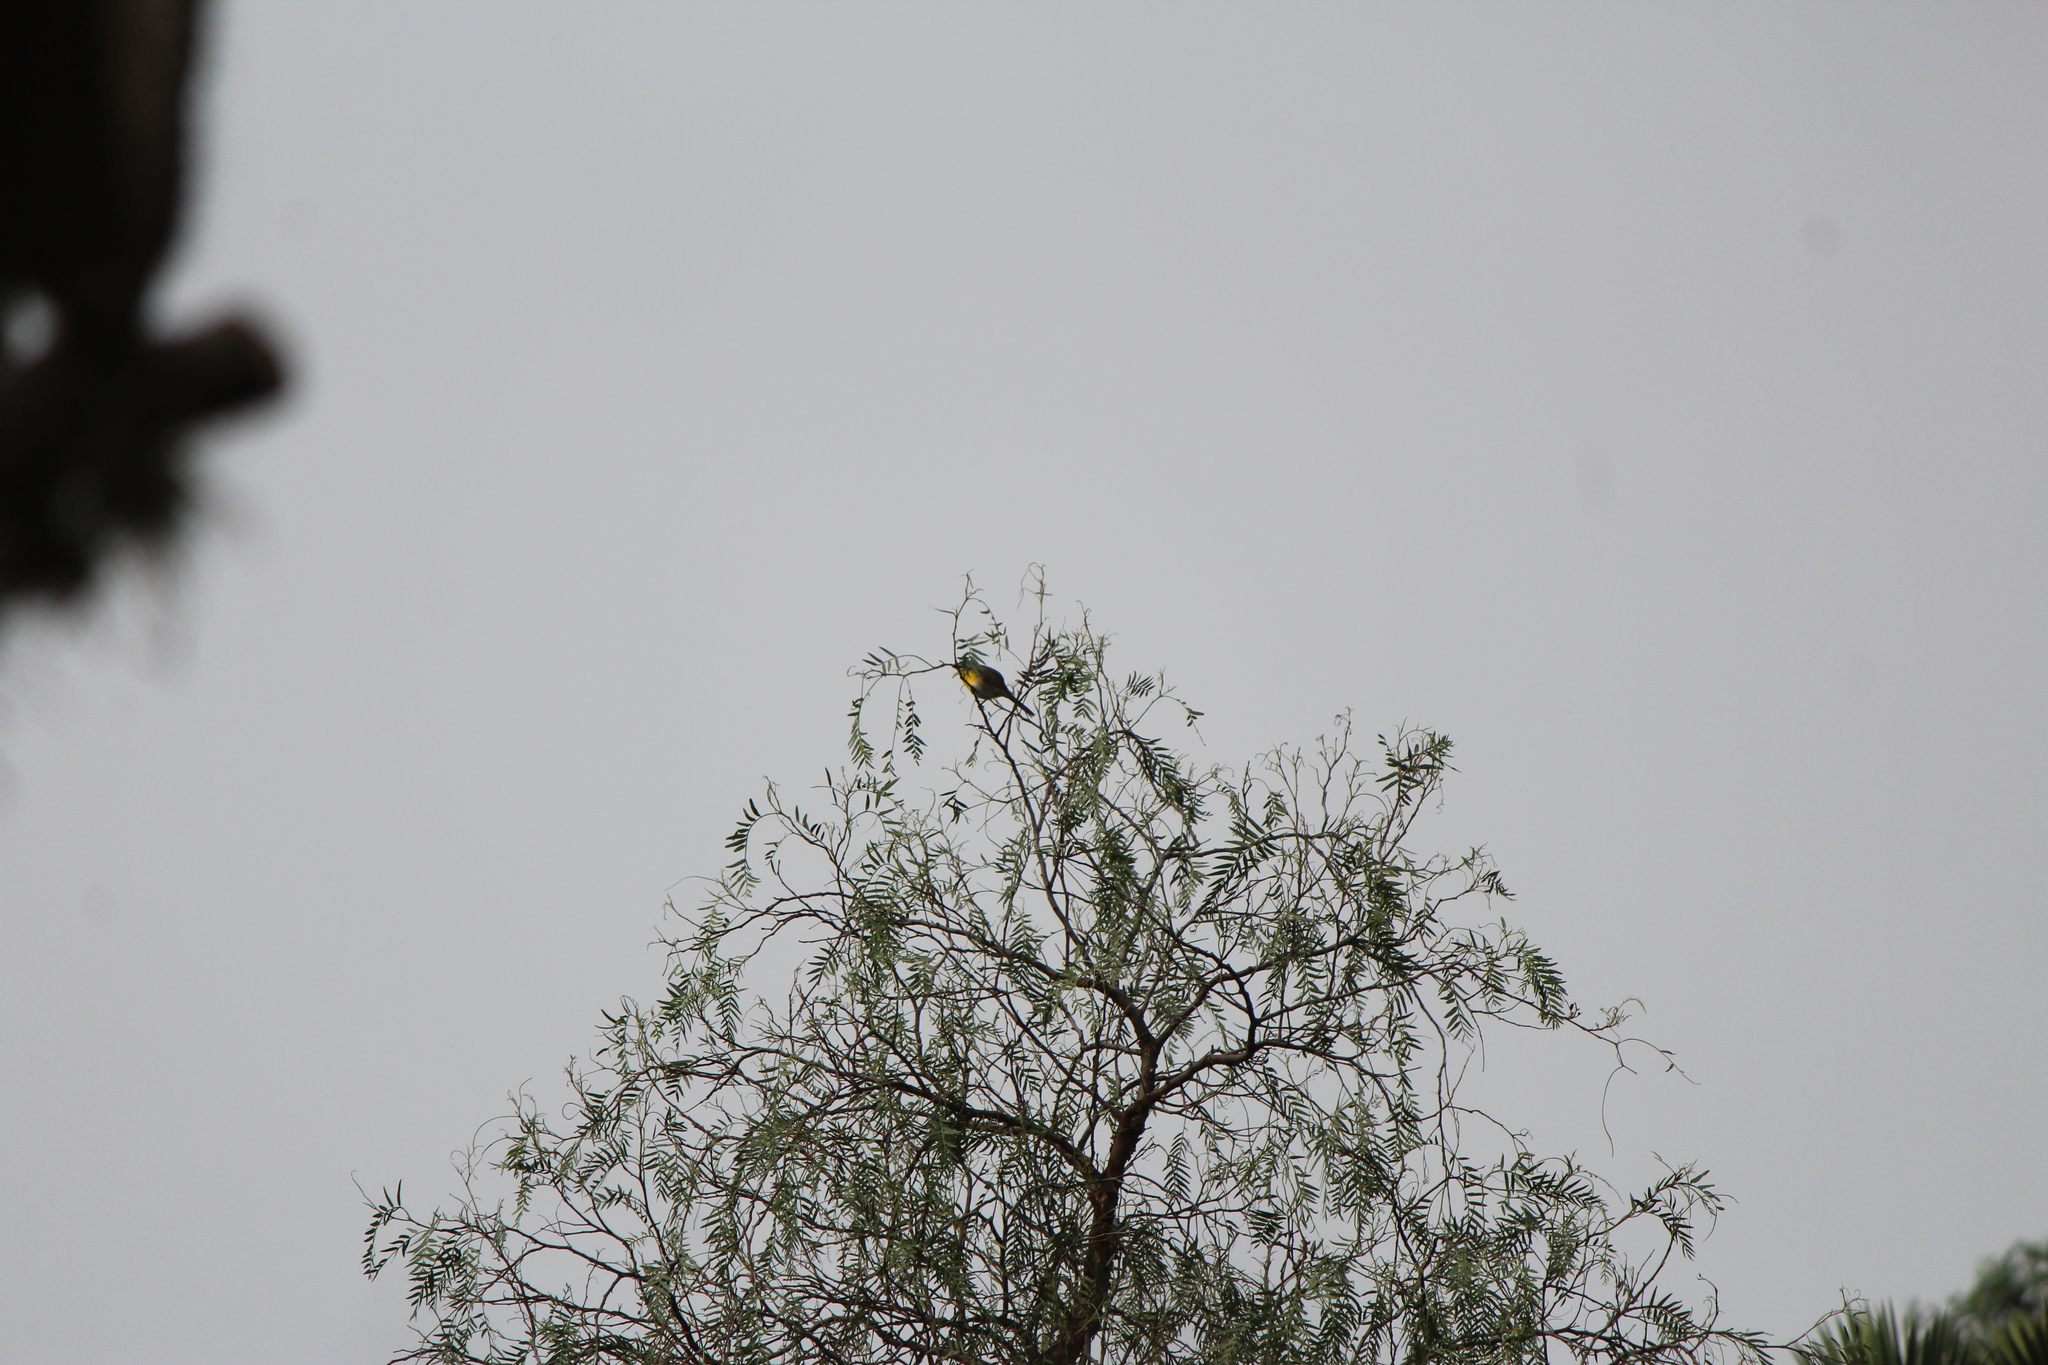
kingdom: Animalia
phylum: Chordata
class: Aves
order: Passeriformes
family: Parulidae
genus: Icteria
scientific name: Icteria virens
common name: Yellow-breasted chat
